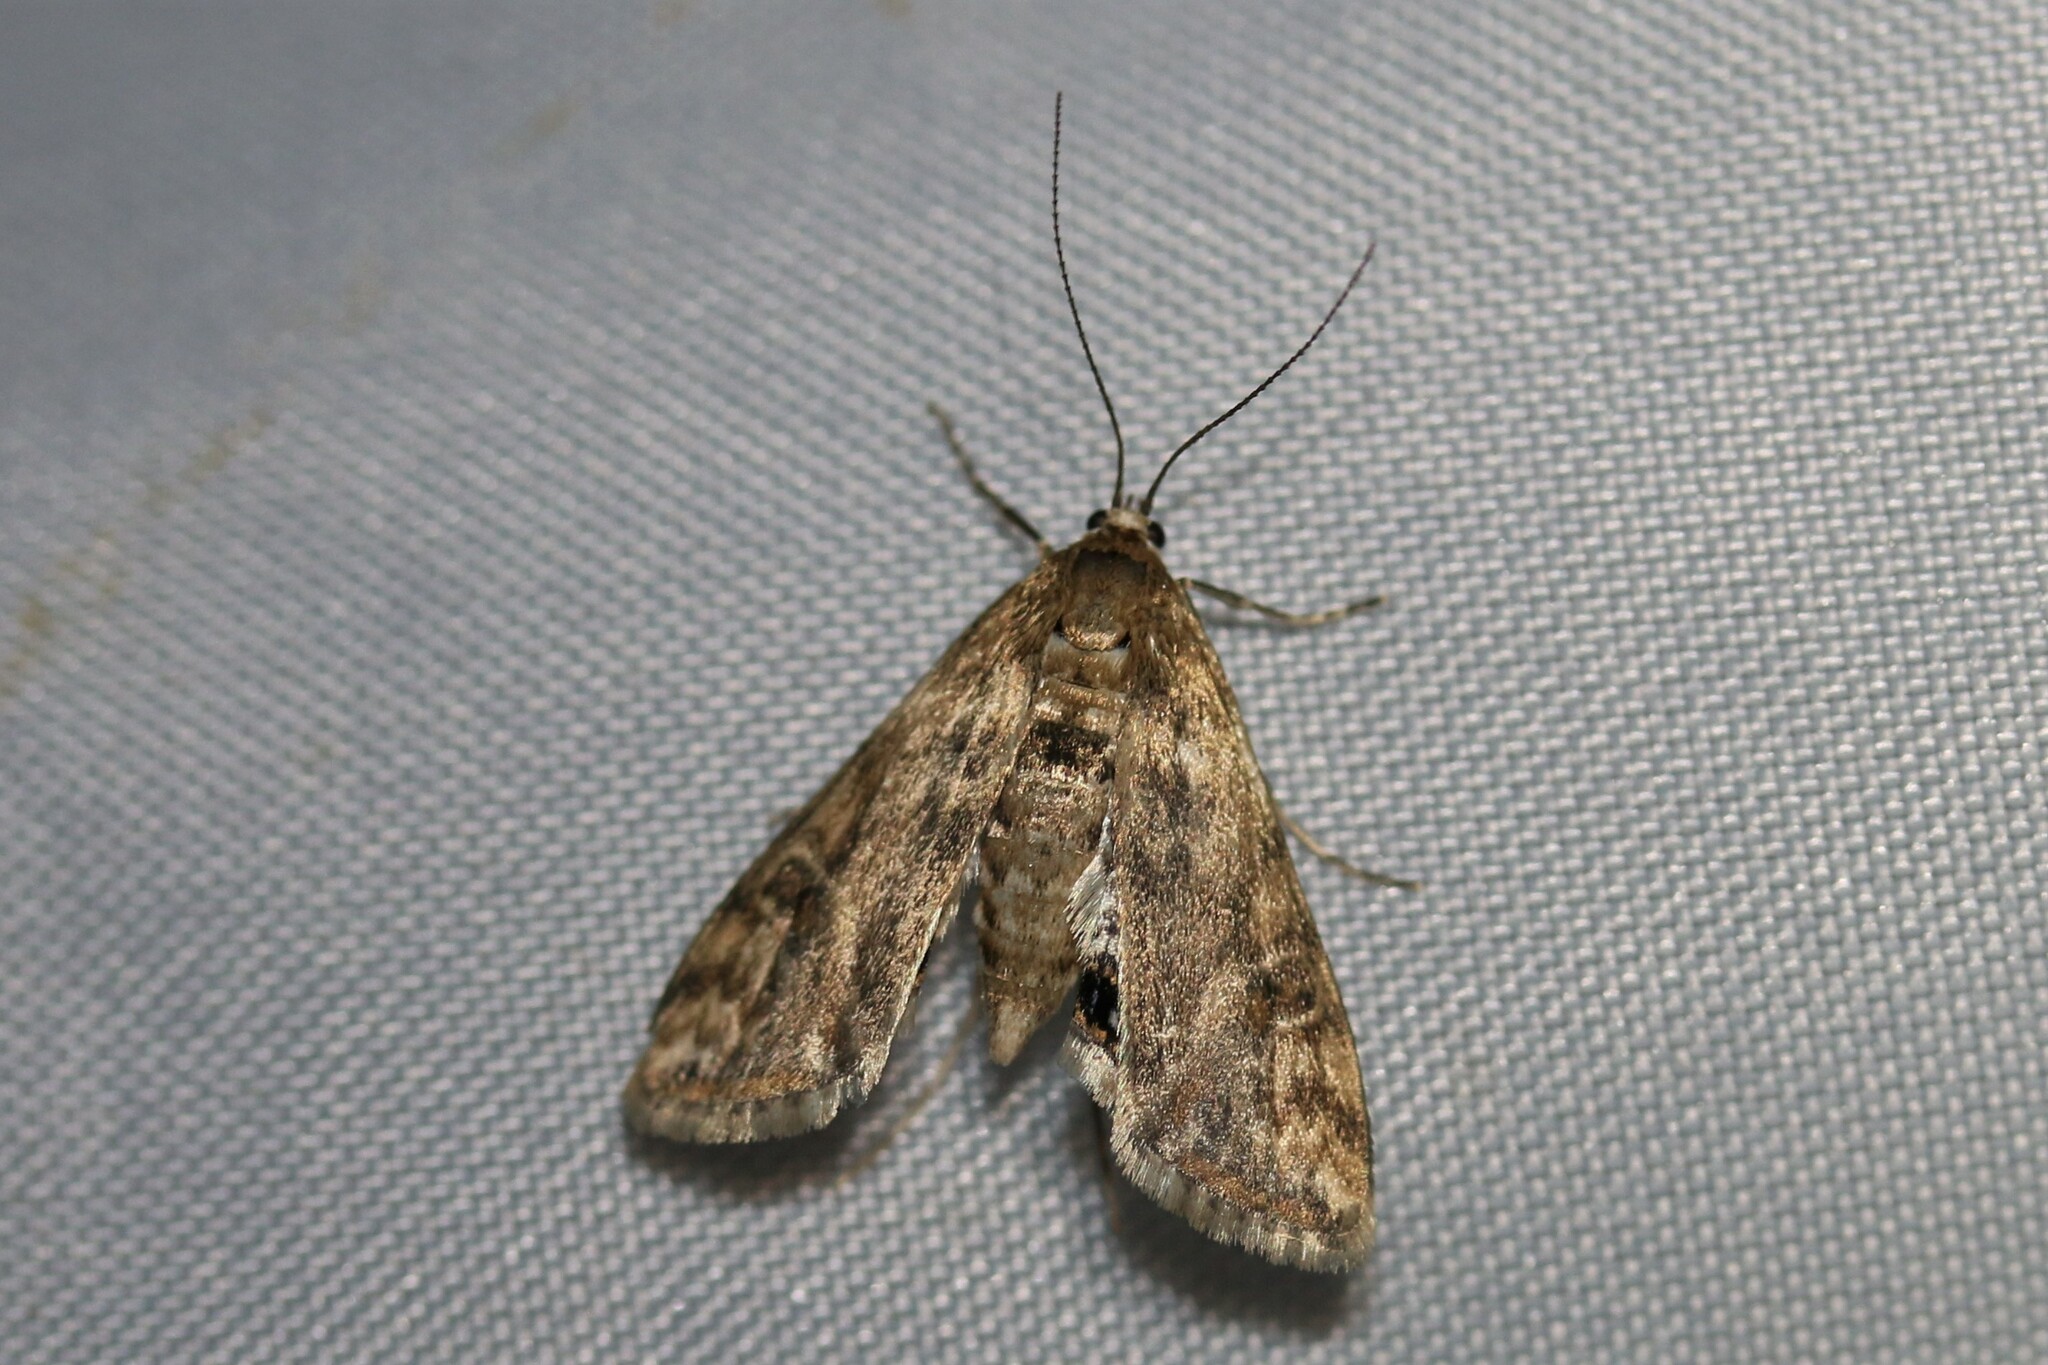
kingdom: Animalia
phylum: Arthropoda
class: Insecta
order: Lepidoptera
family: Crambidae
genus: Cataclysta
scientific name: Cataclysta lemnata
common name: Small china-mark
